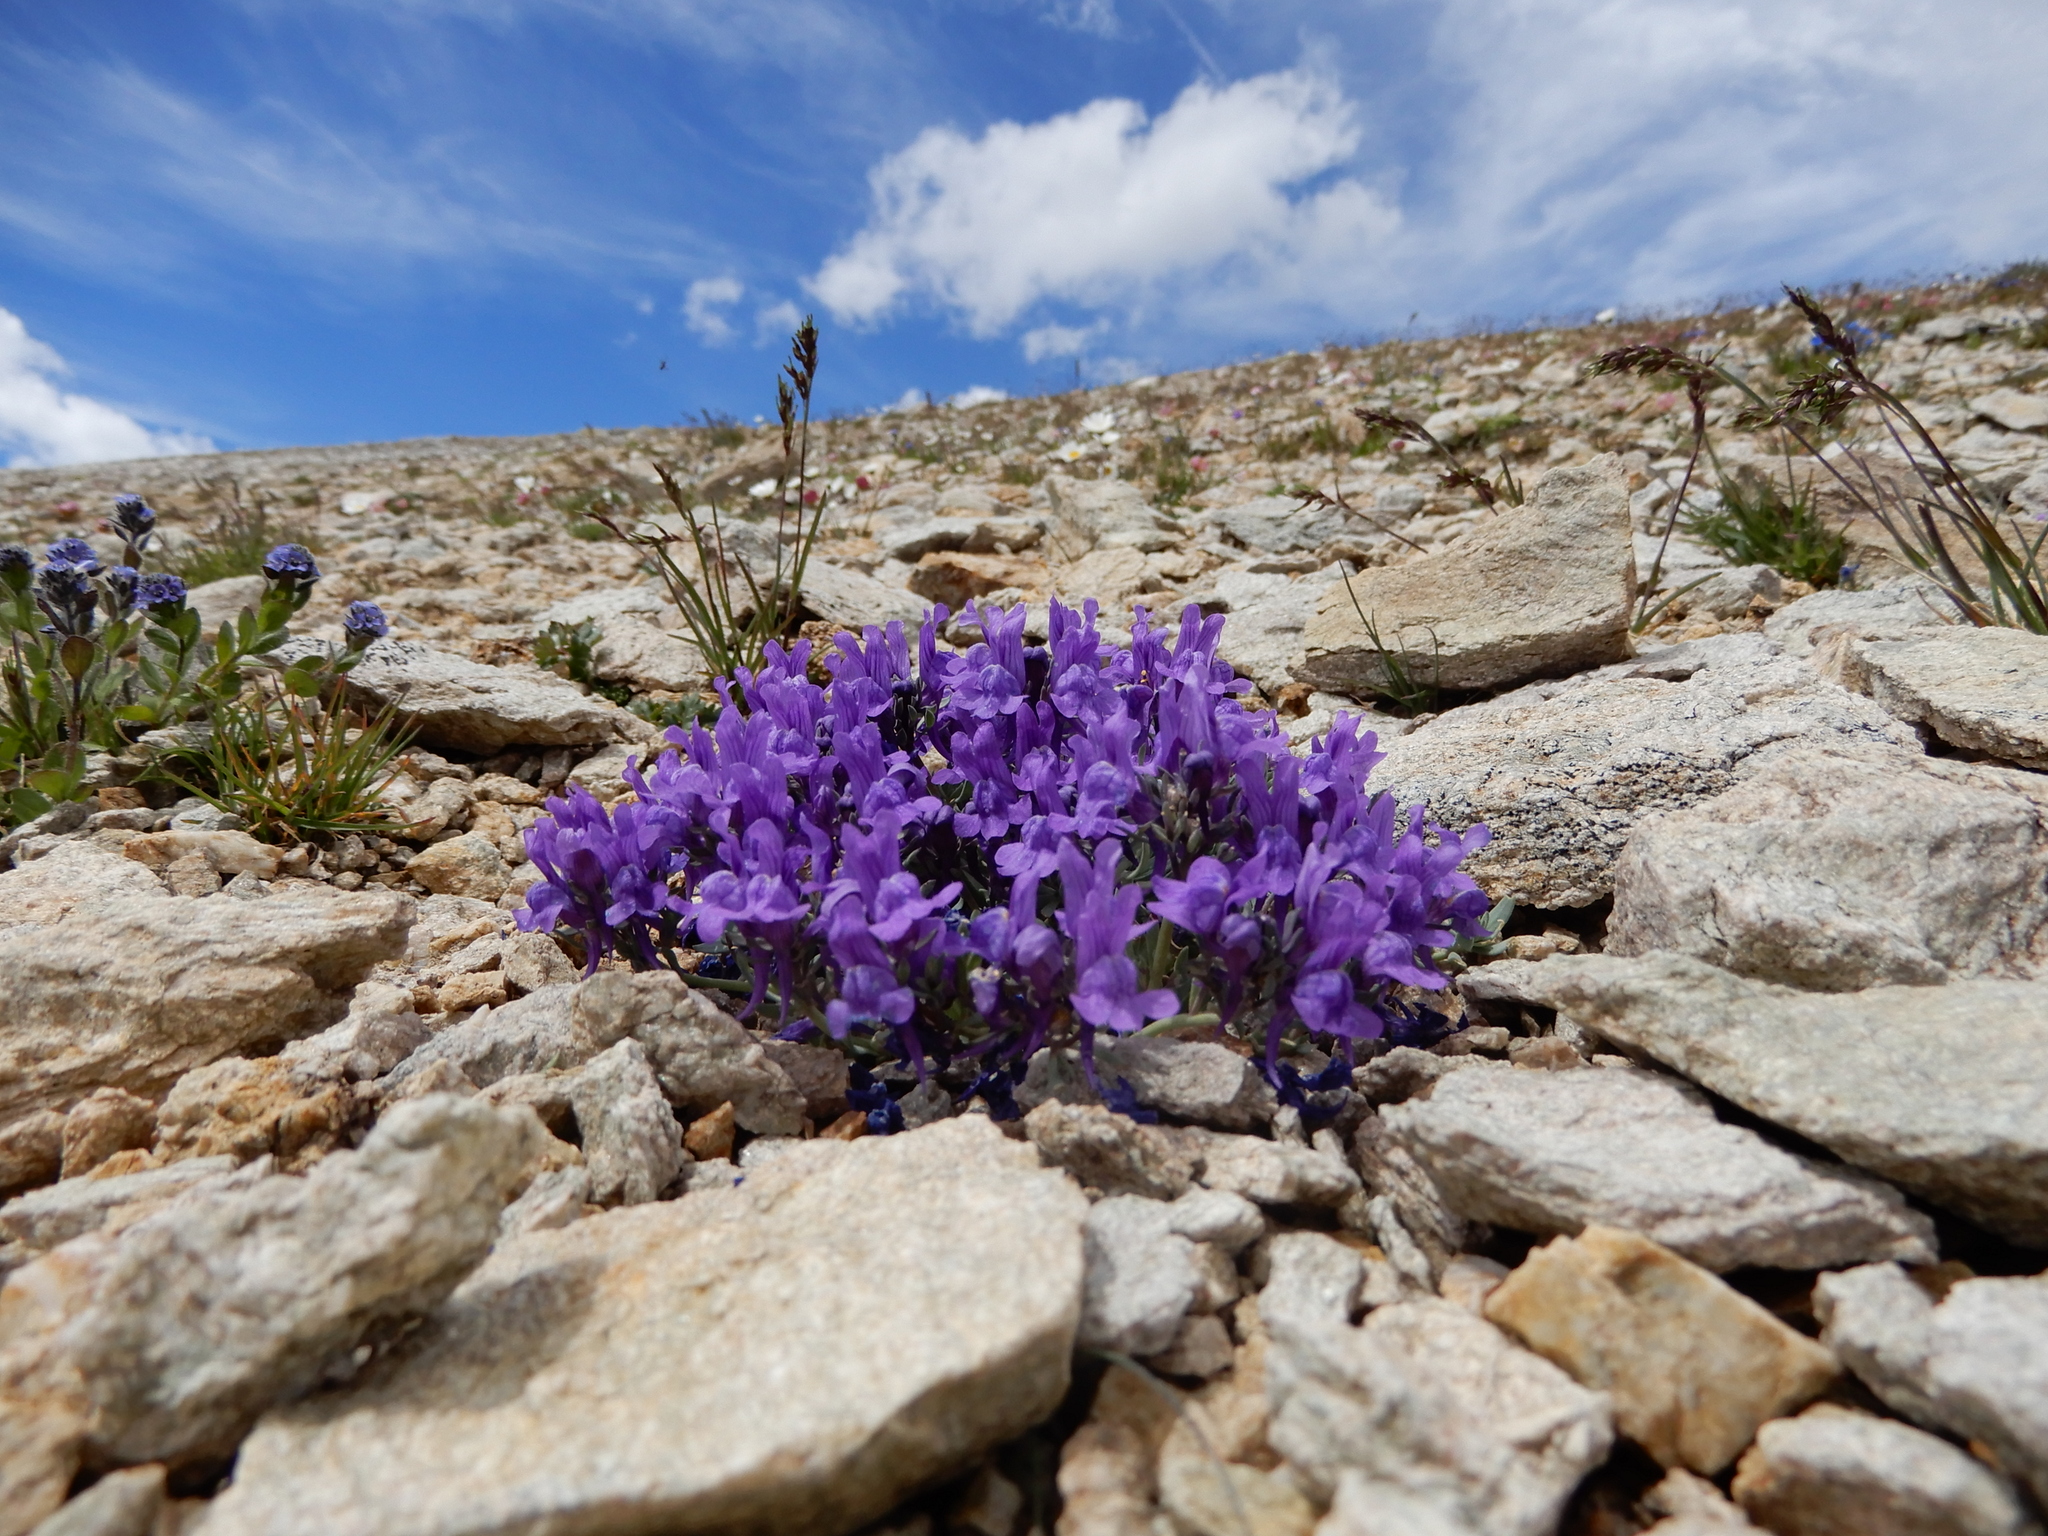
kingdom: Plantae
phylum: Tracheophyta
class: Magnoliopsida
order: Lamiales
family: Plantaginaceae
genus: Linaria
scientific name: Linaria alpina
